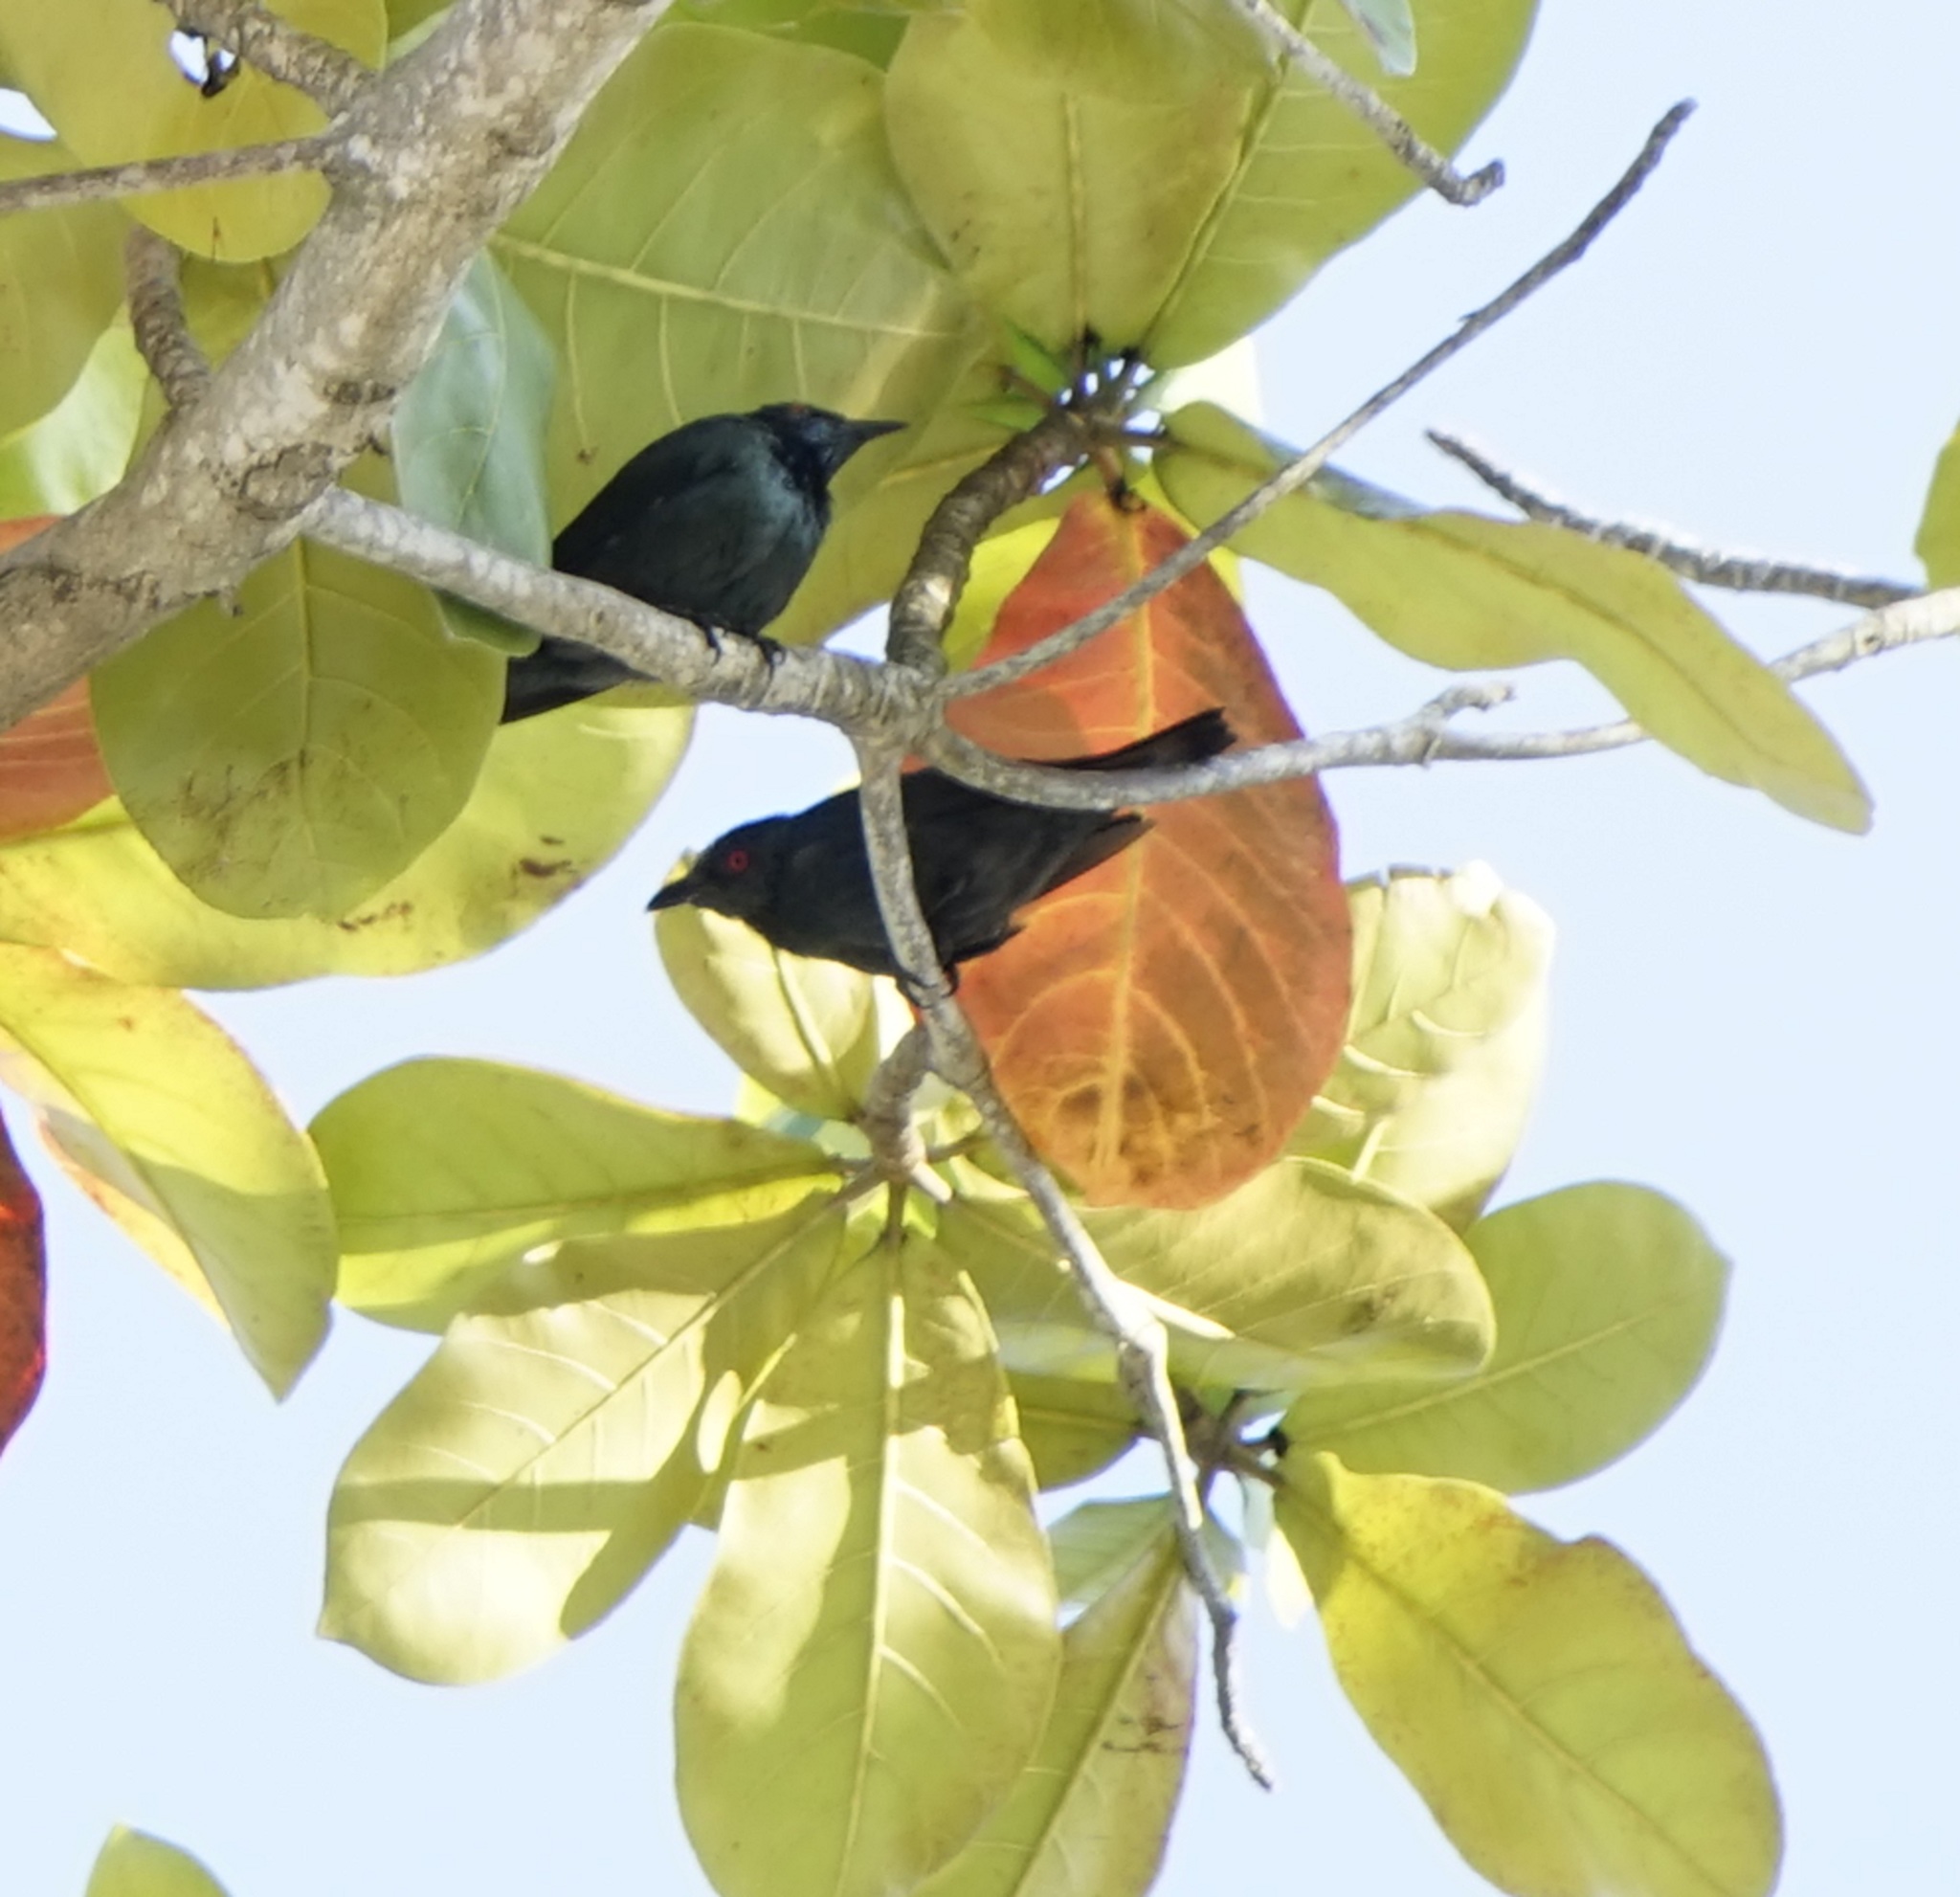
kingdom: Animalia
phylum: Chordata
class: Aves
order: Passeriformes
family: Sturnidae
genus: Aplonis
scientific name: Aplonis panayensis
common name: Asian glossy starling
